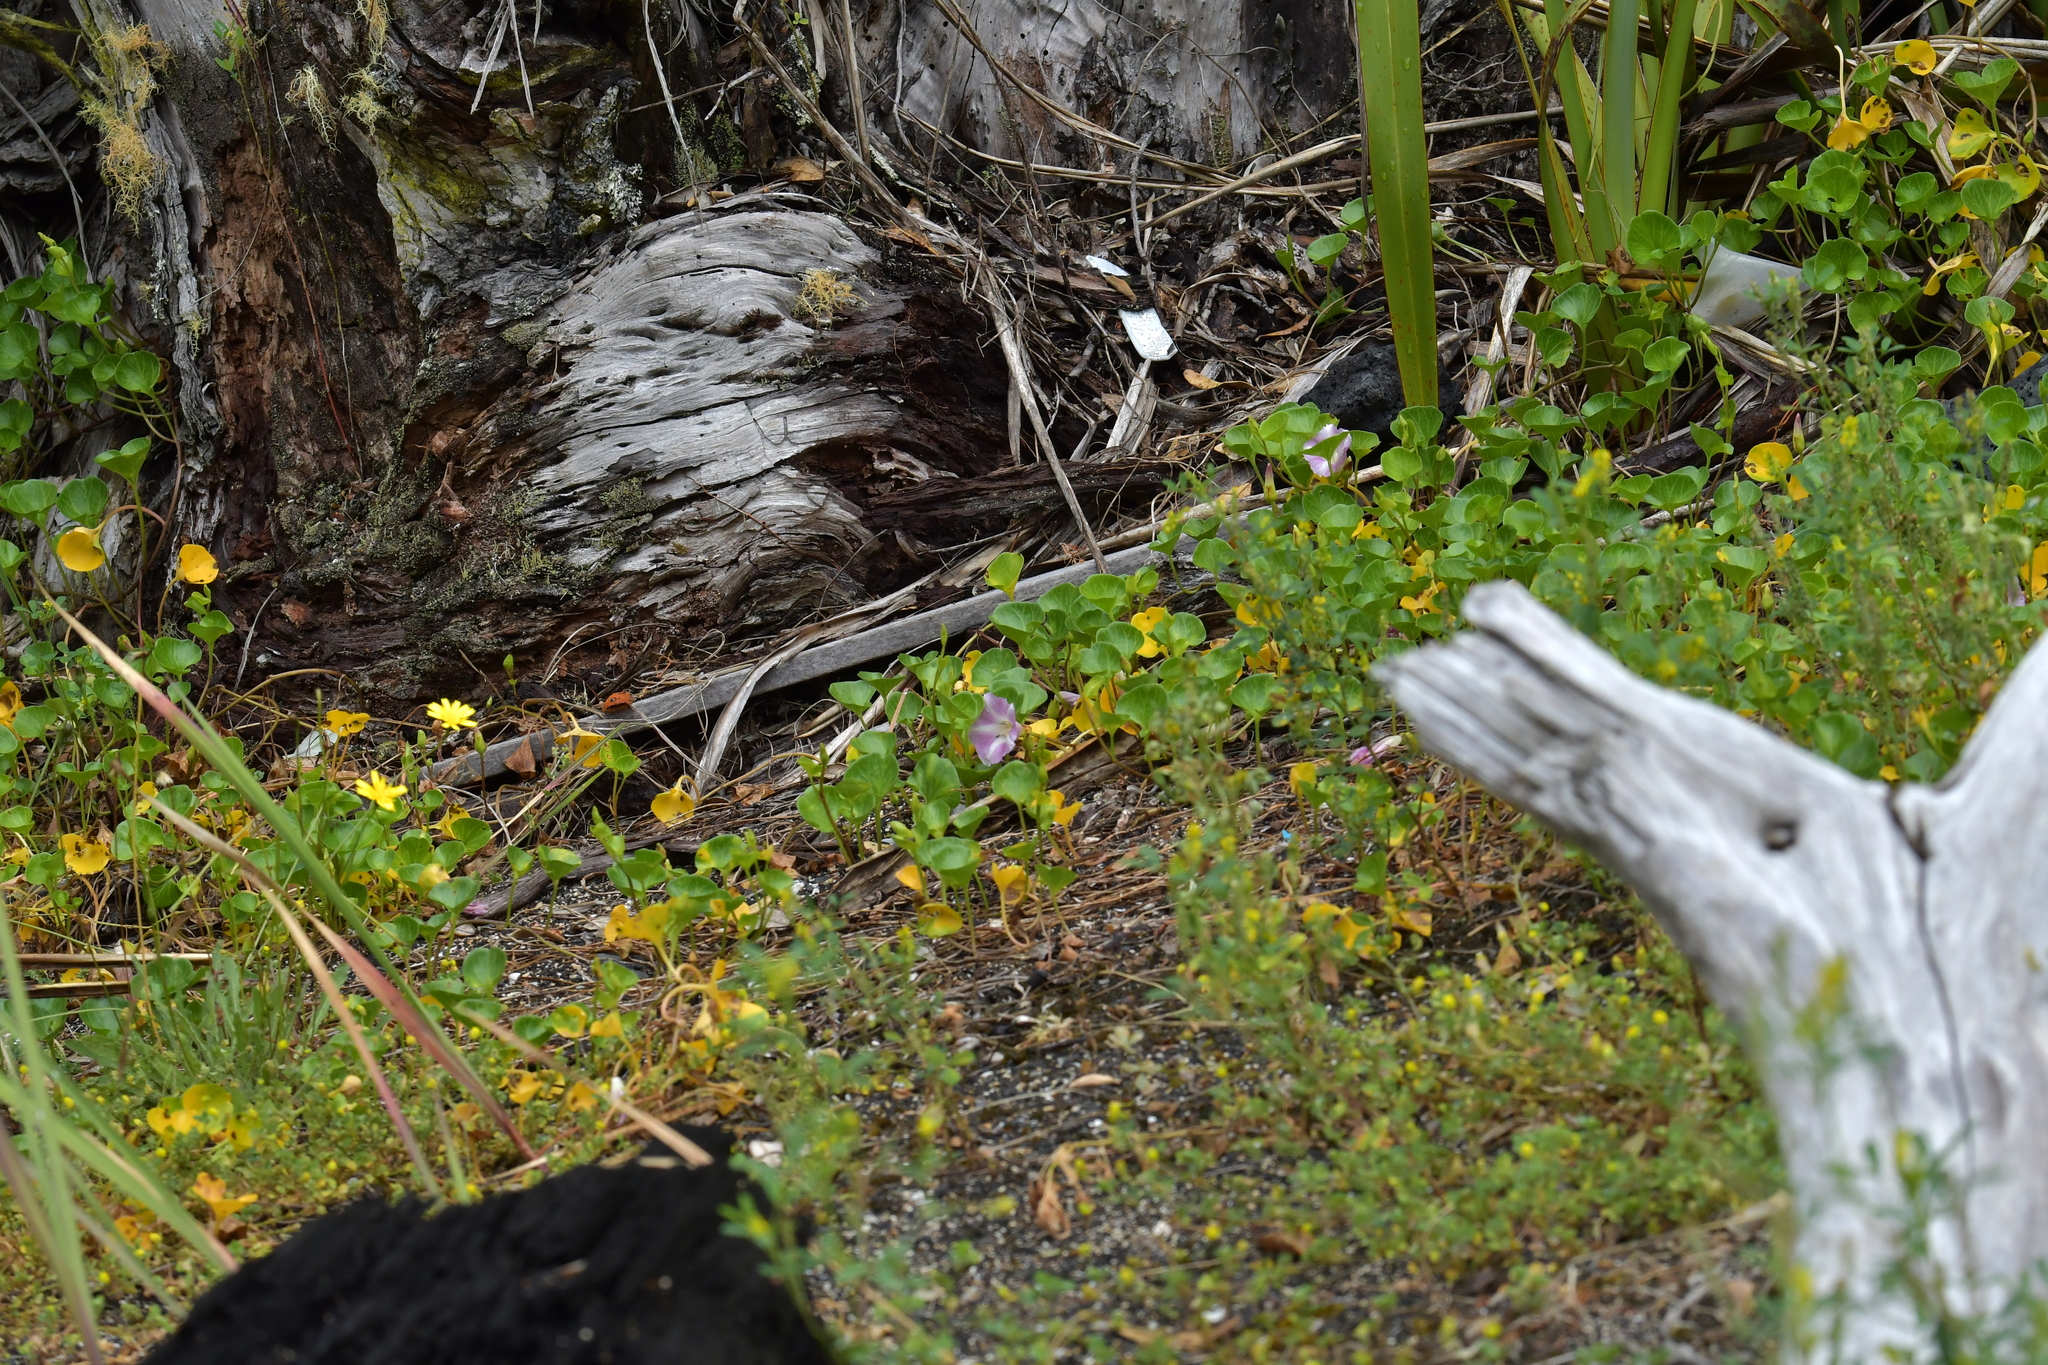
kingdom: Plantae
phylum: Tracheophyta
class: Magnoliopsida
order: Solanales
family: Convolvulaceae
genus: Calystegia
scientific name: Calystegia soldanella
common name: Sea bindweed
